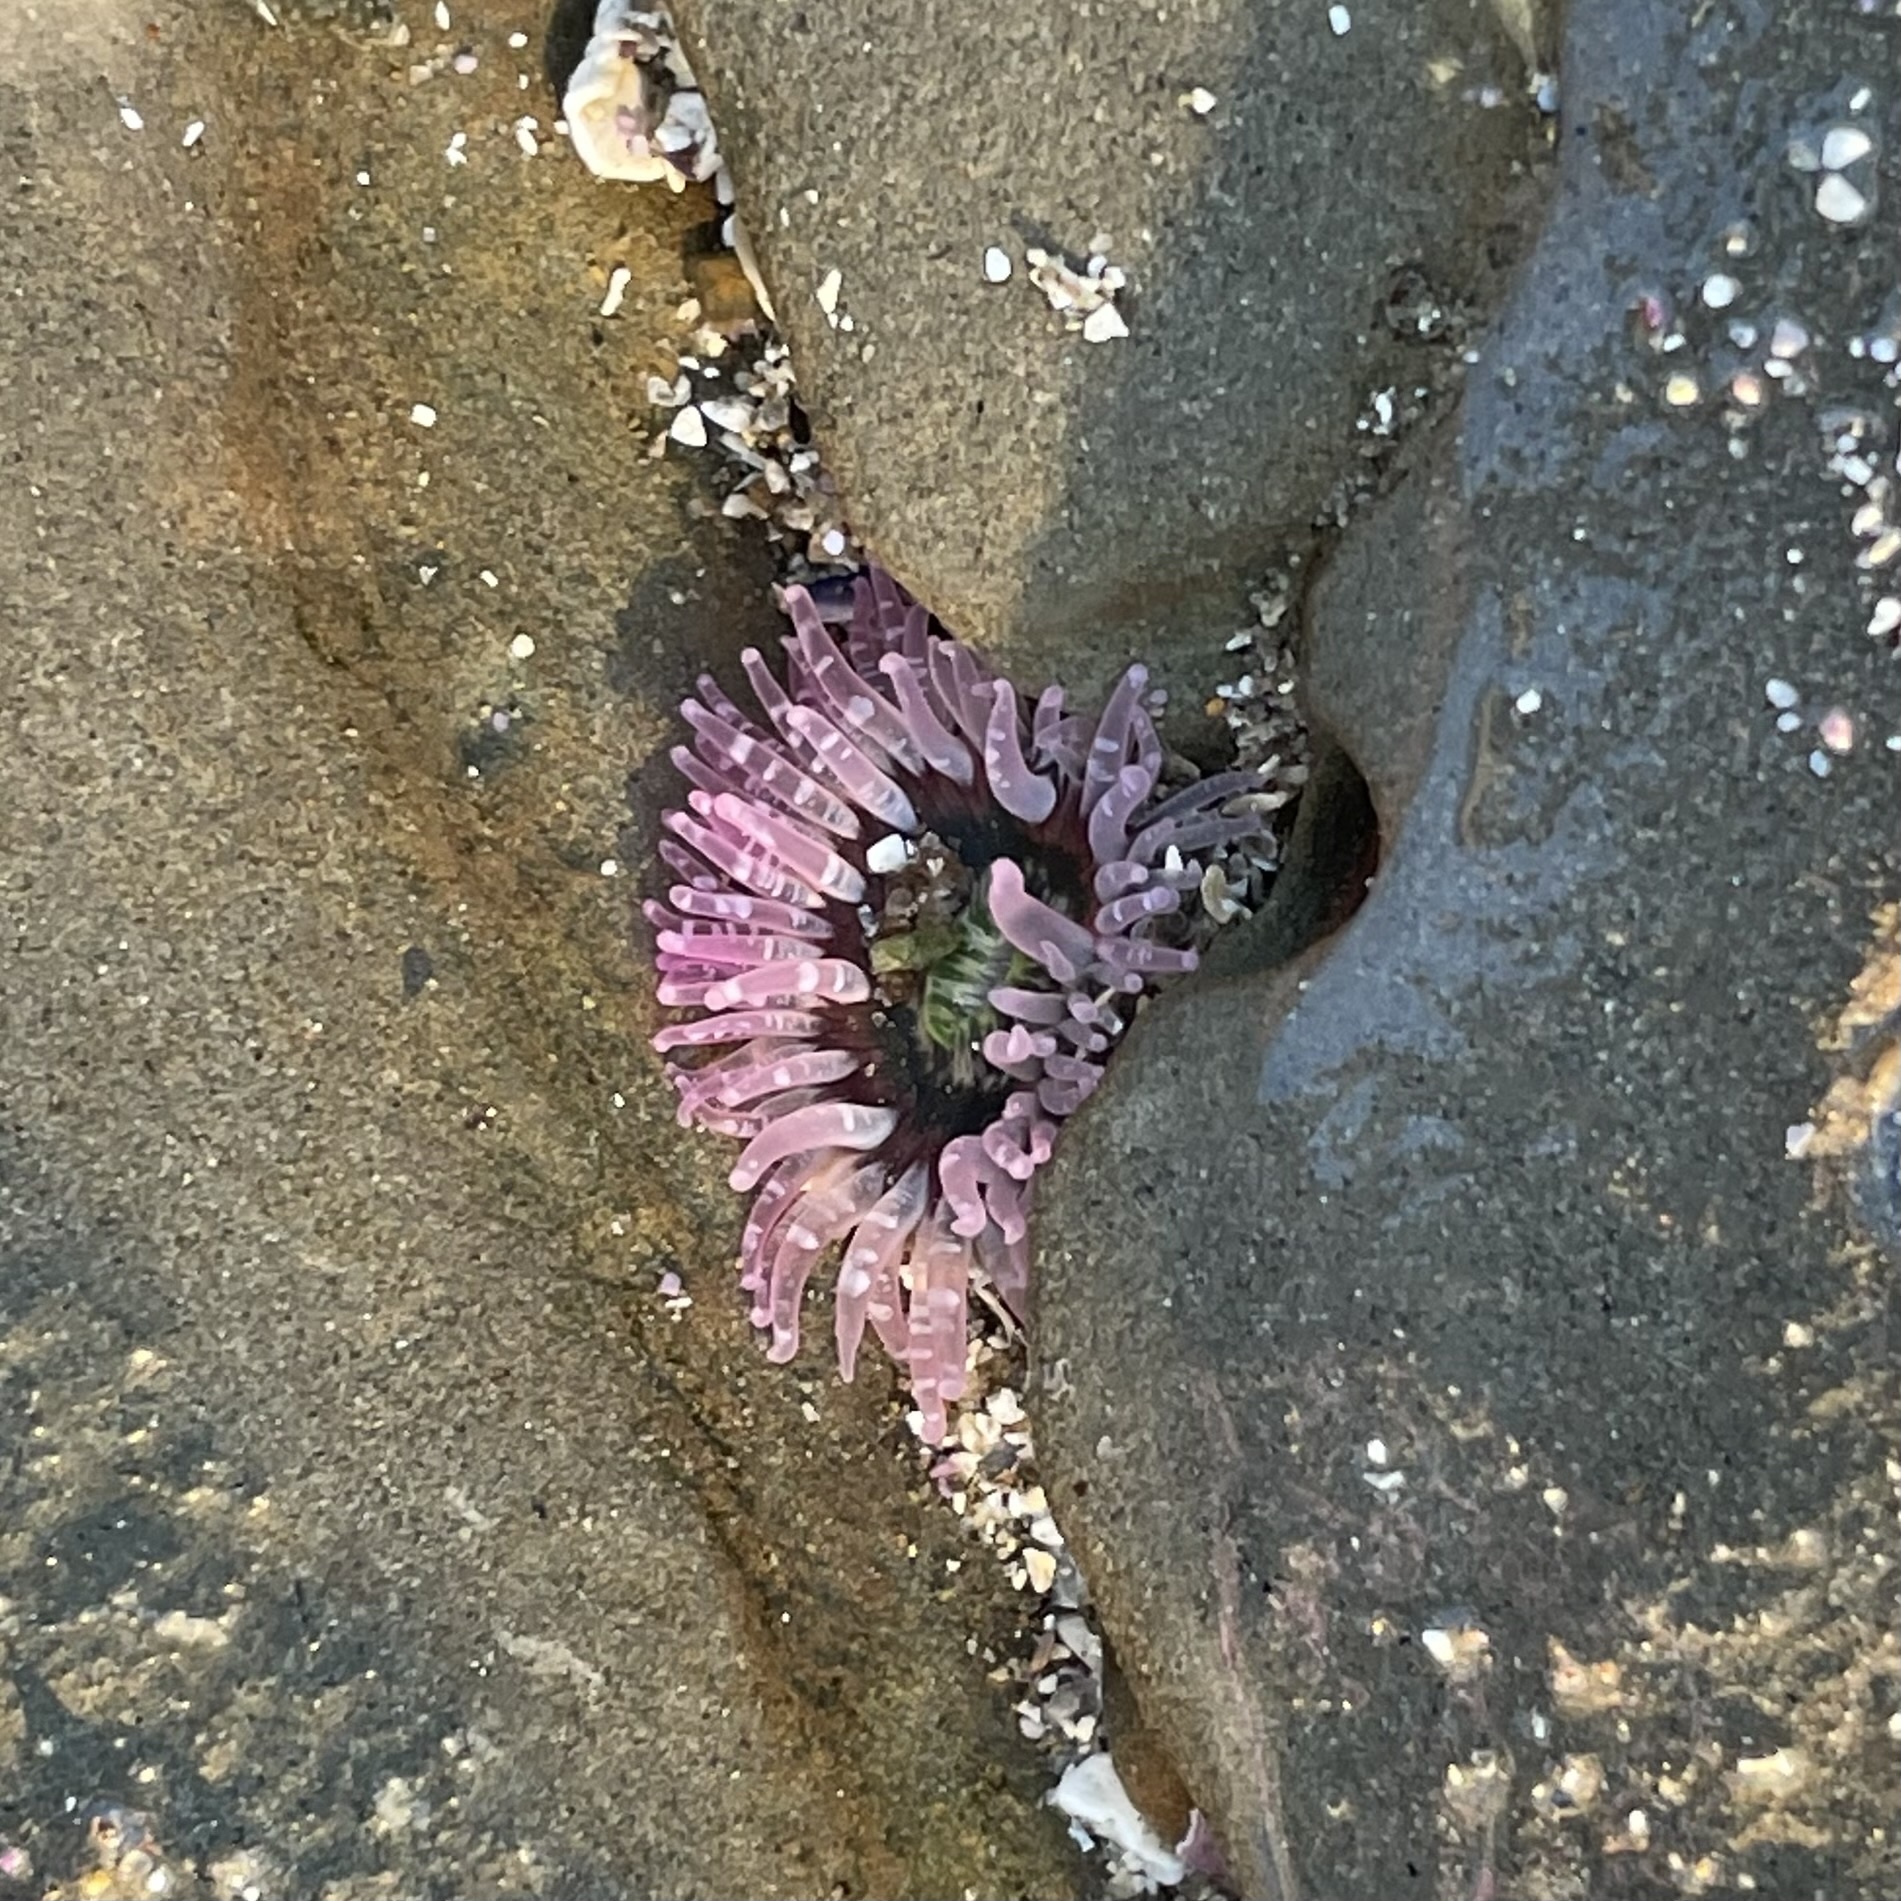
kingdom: Animalia
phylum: Cnidaria
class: Anthozoa
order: Actiniaria
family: Actiniidae
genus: Anthopleura
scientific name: Anthopleura artemisia
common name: Buried sea anemone
